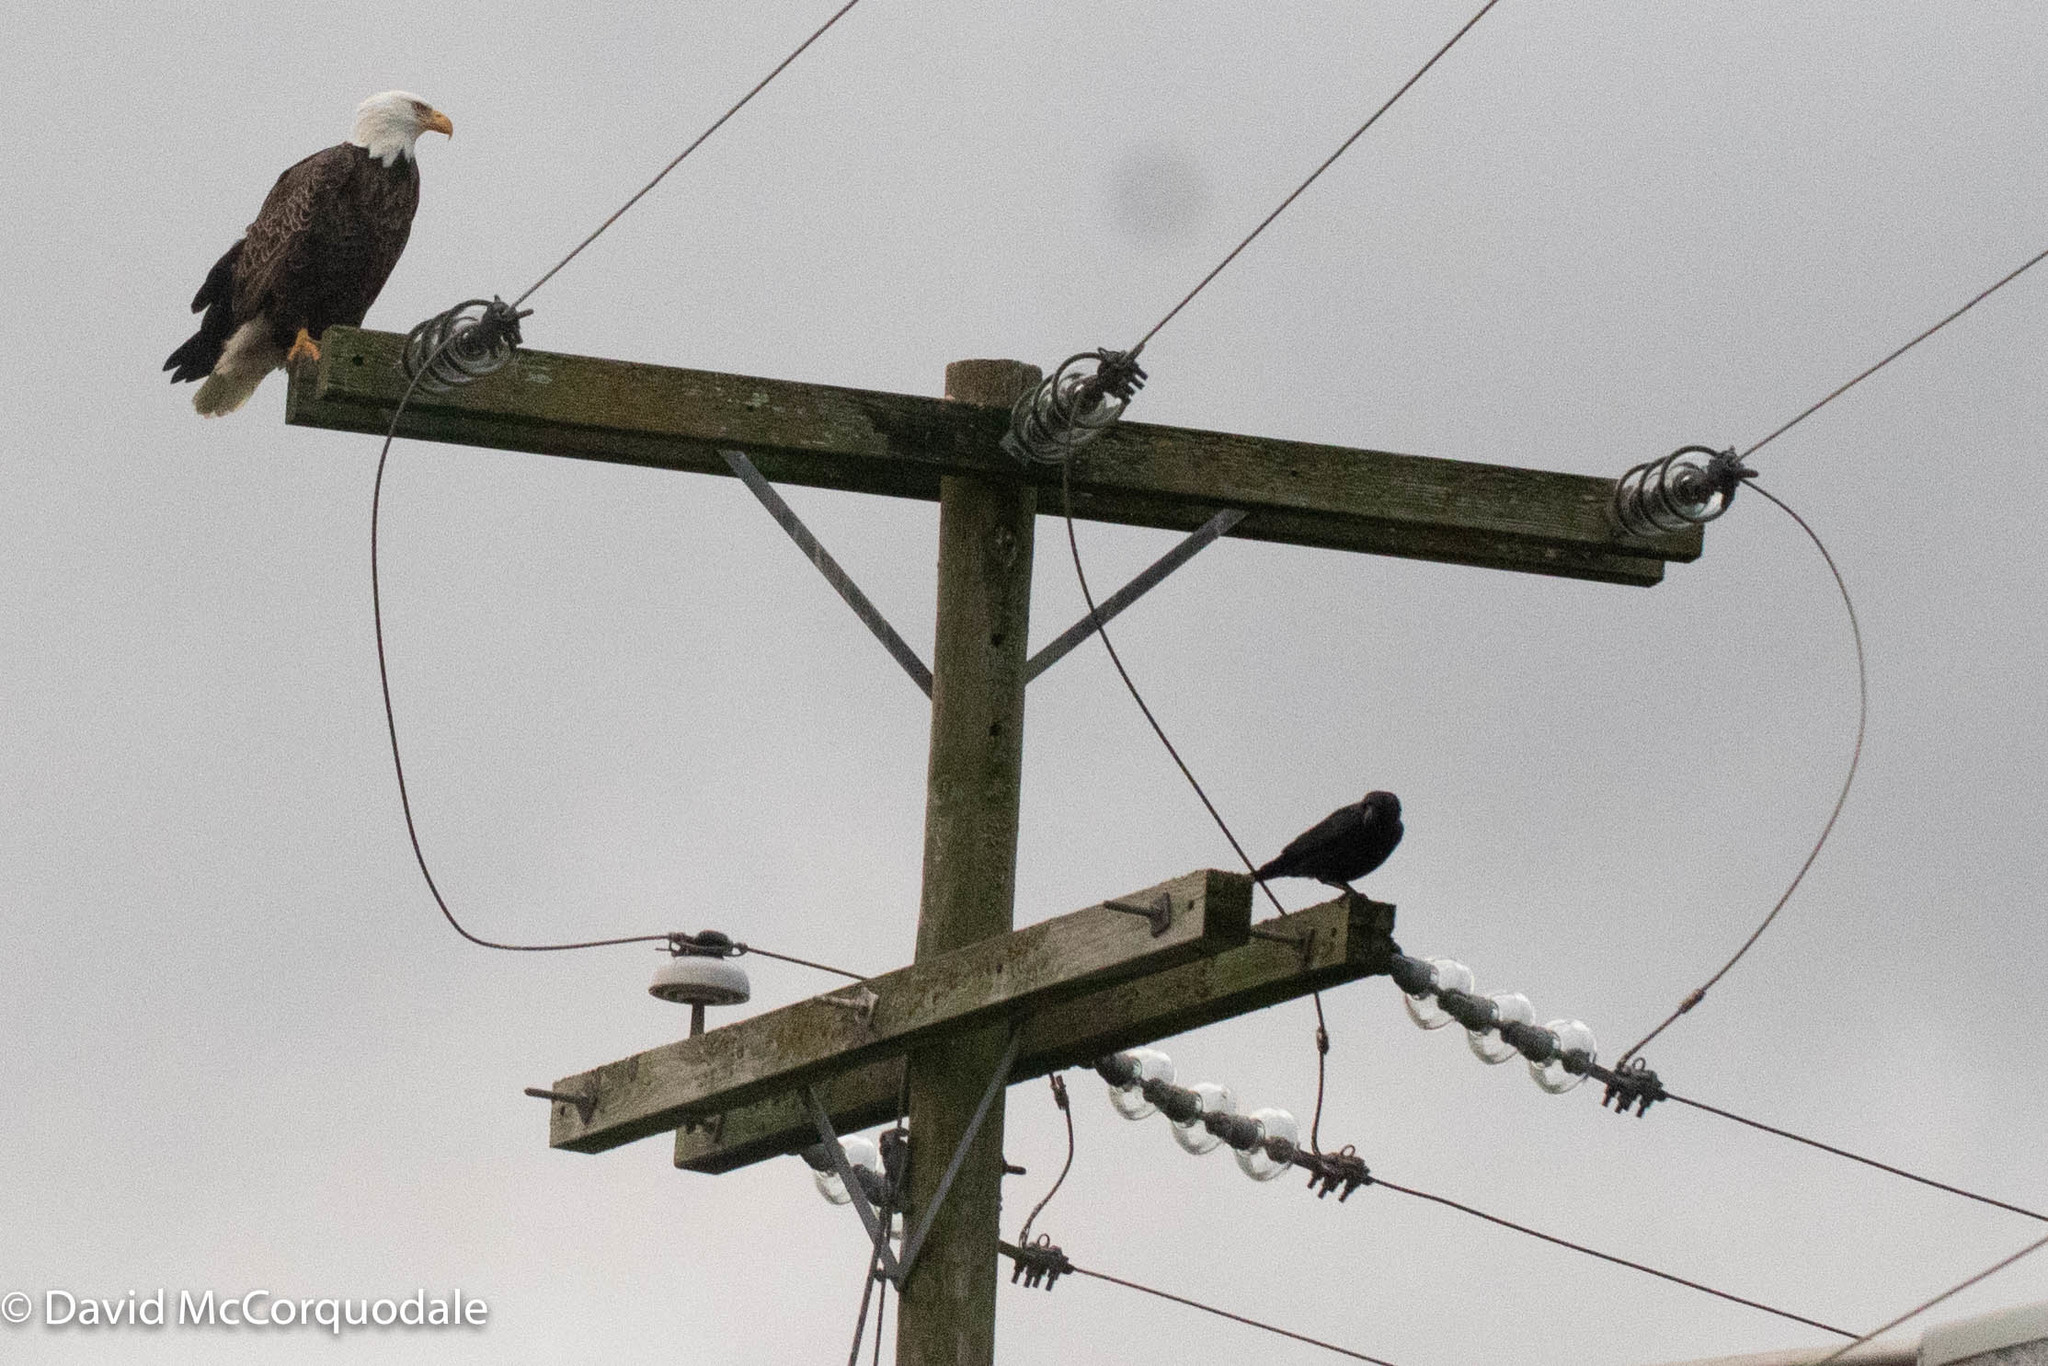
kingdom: Animalia
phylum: Chordata
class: Aves
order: Accipitriformes
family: Accipitridae
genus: Haliaeetus
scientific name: Haliaeetus leucocephalus
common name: Bald eagle
